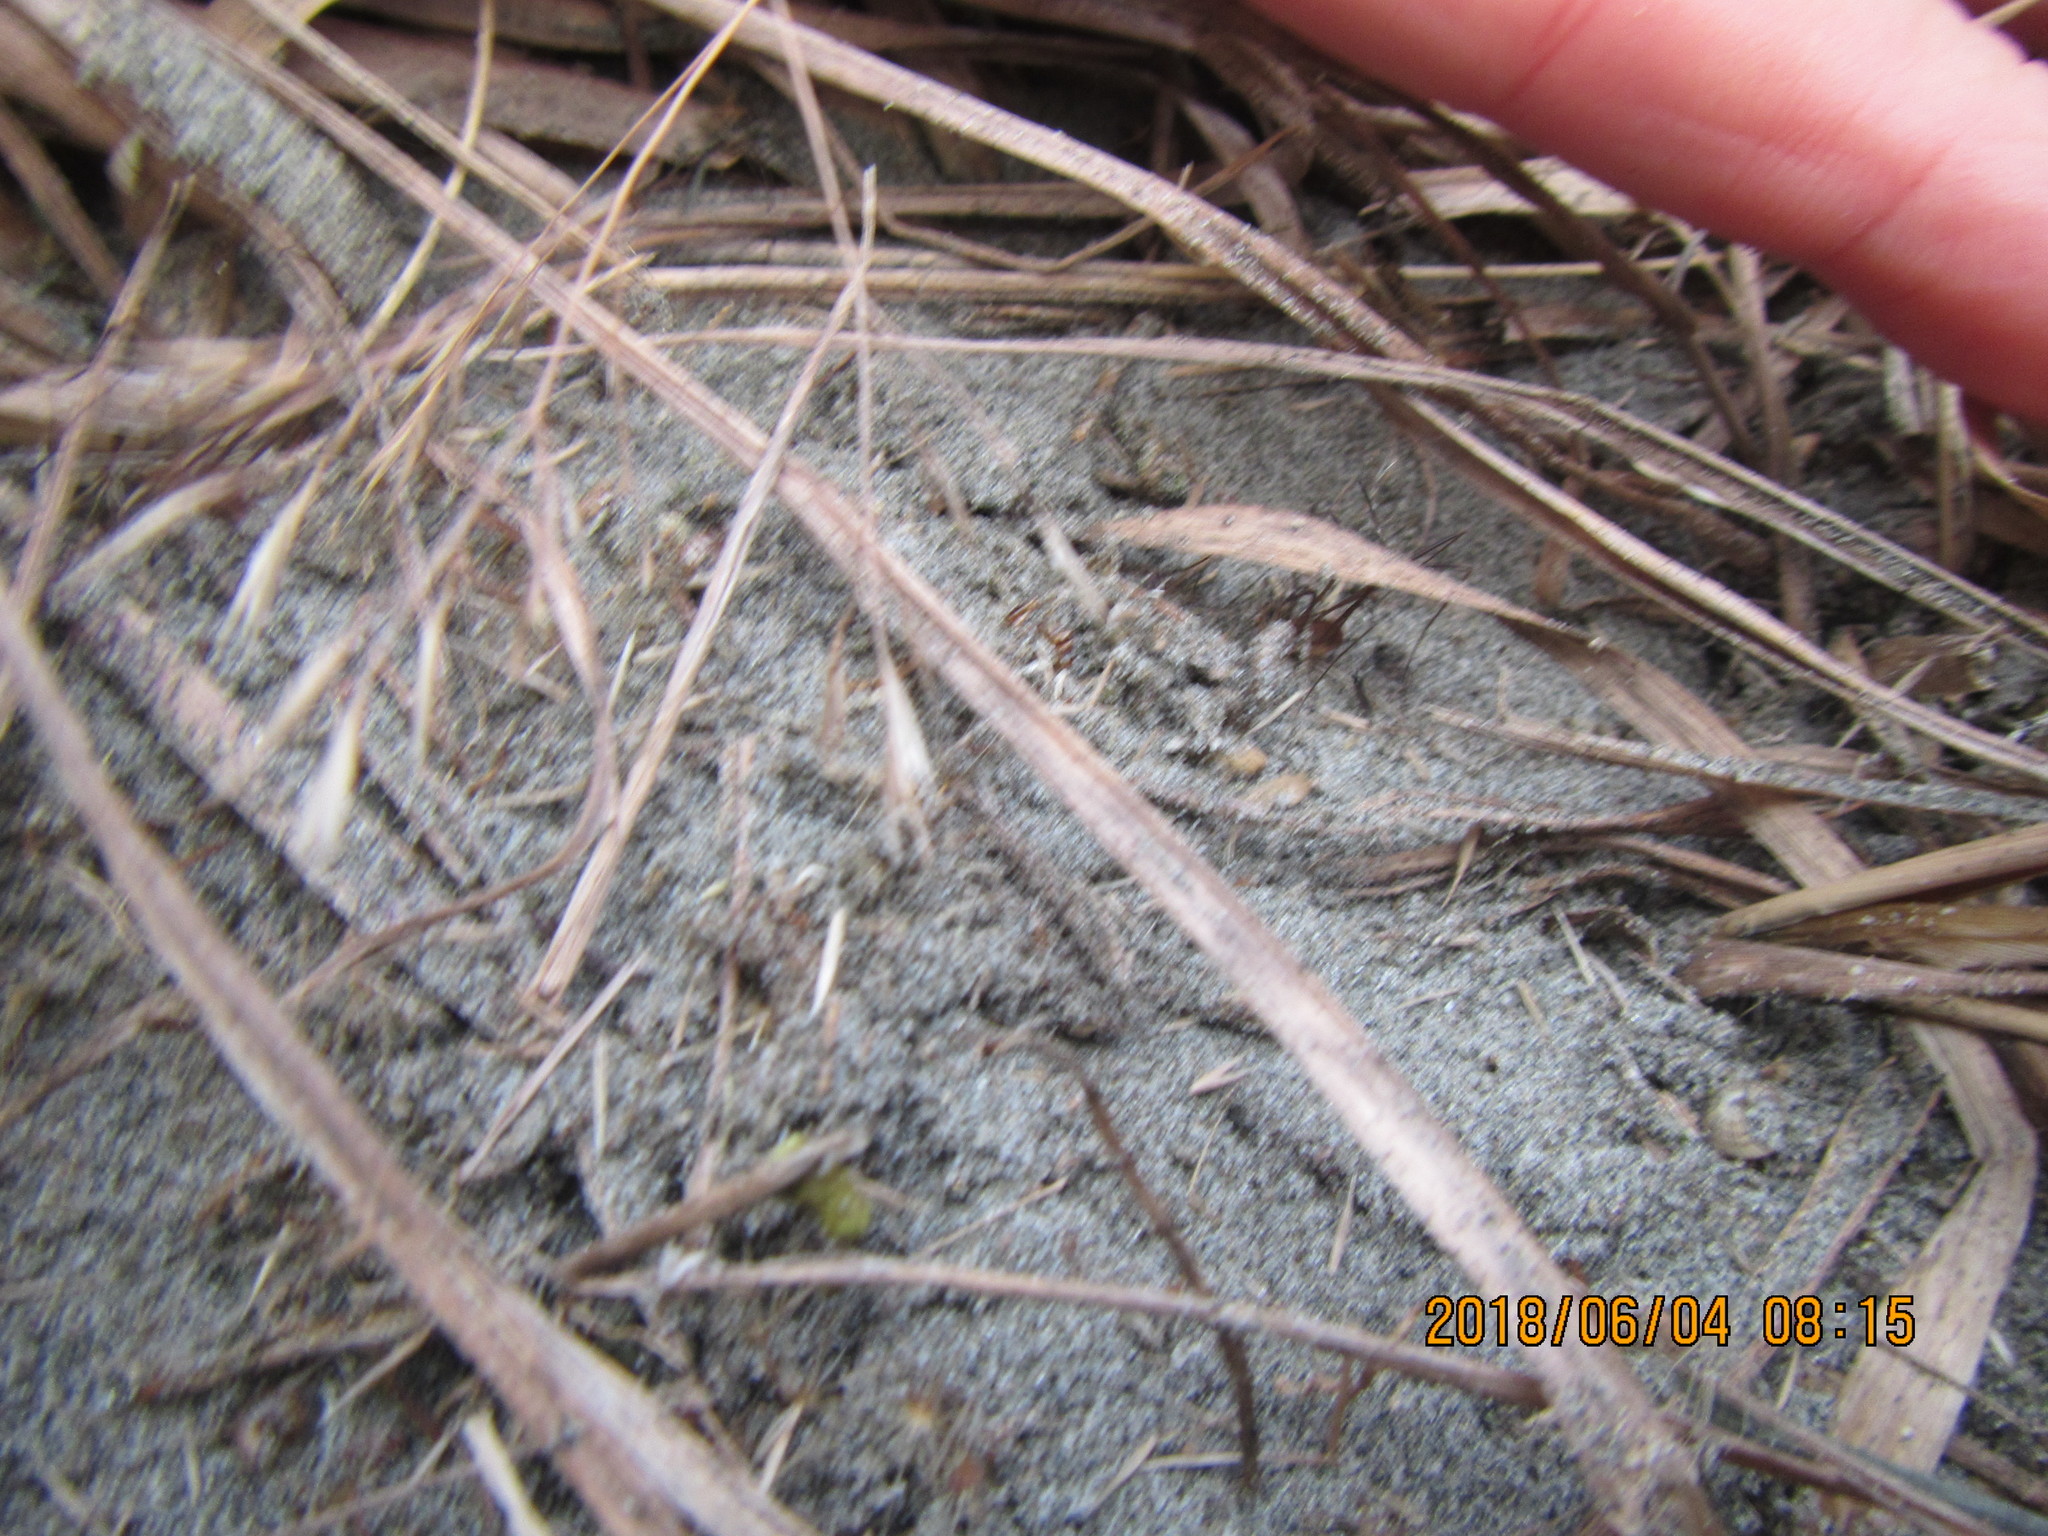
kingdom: Animalia
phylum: Arthropoda
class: Arachnida
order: Opiliones
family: Phalangiidae
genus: Phalangium
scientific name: Phalangium opilio
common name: Daddy longleg
